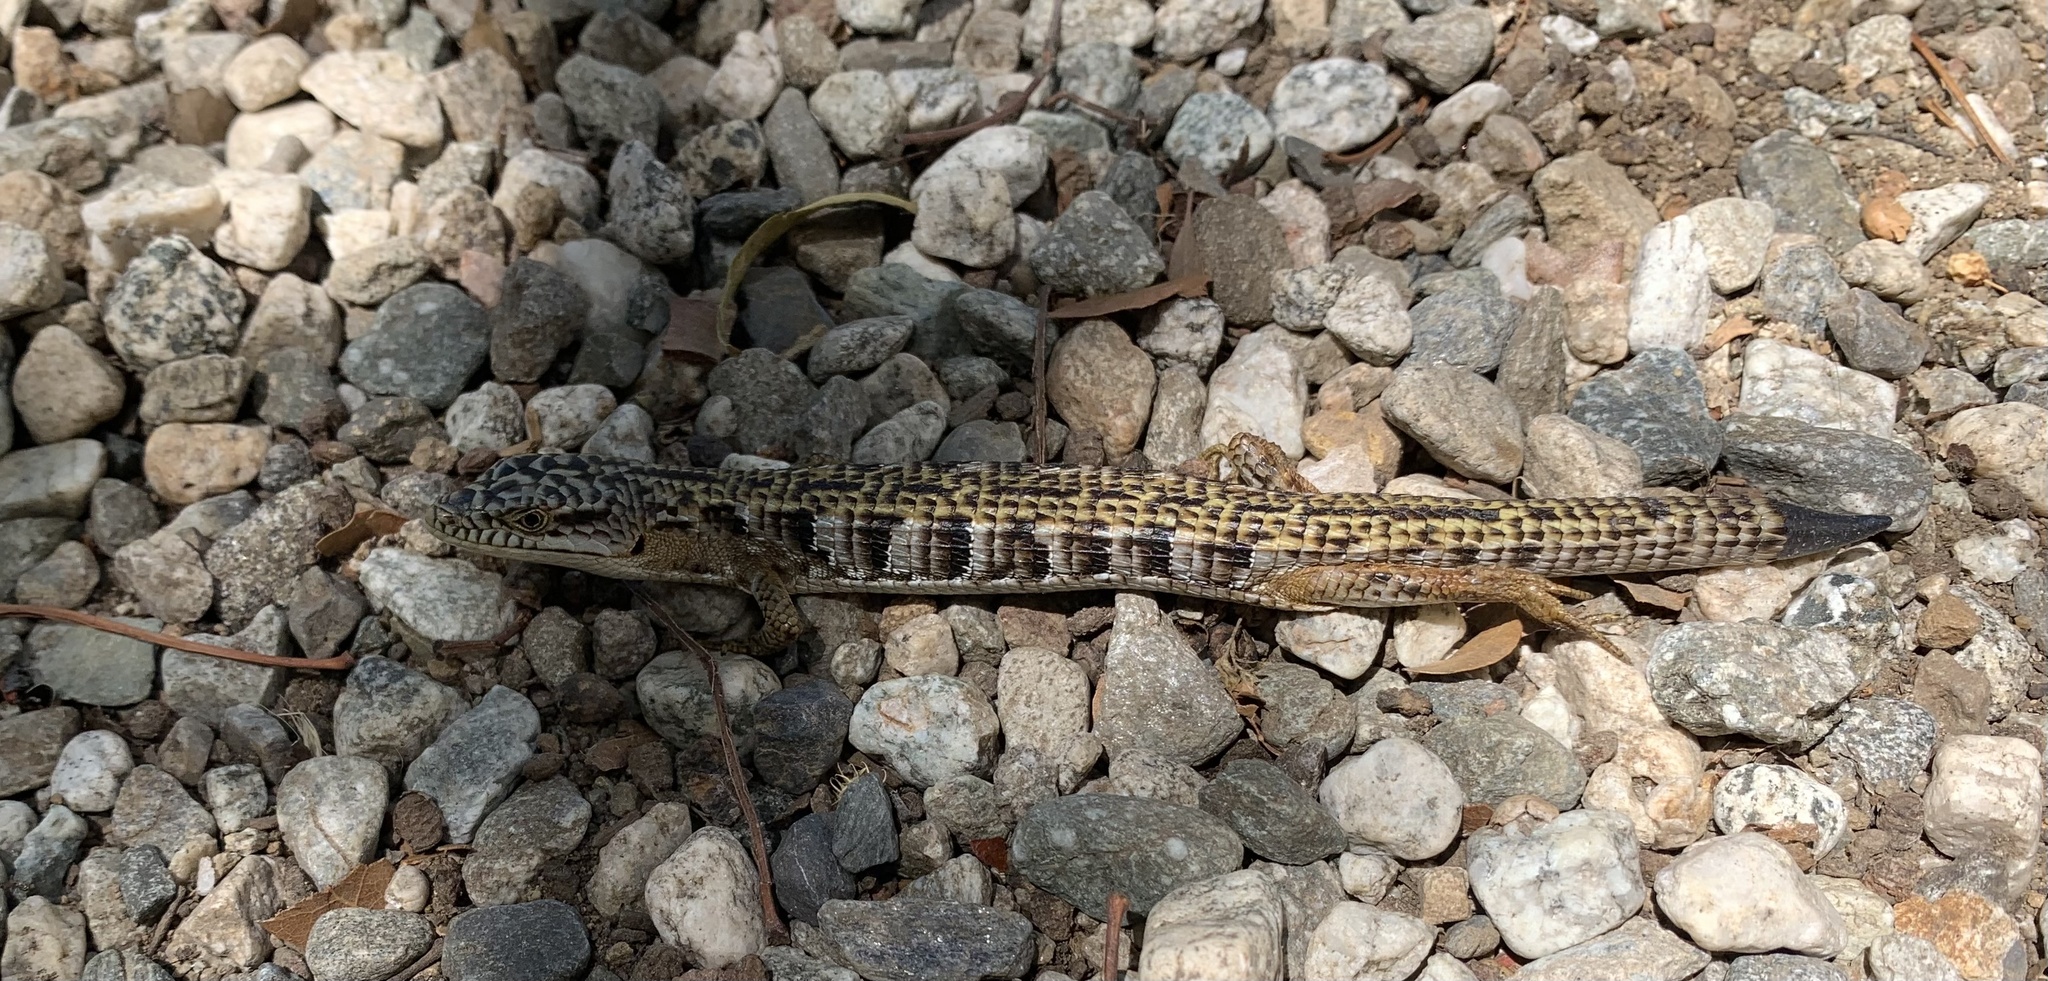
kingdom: Animalia
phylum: Chordata
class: Squamata
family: Anguidae
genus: Elgaria
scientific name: Elgaria multicarinata
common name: Southern alligator lizard
